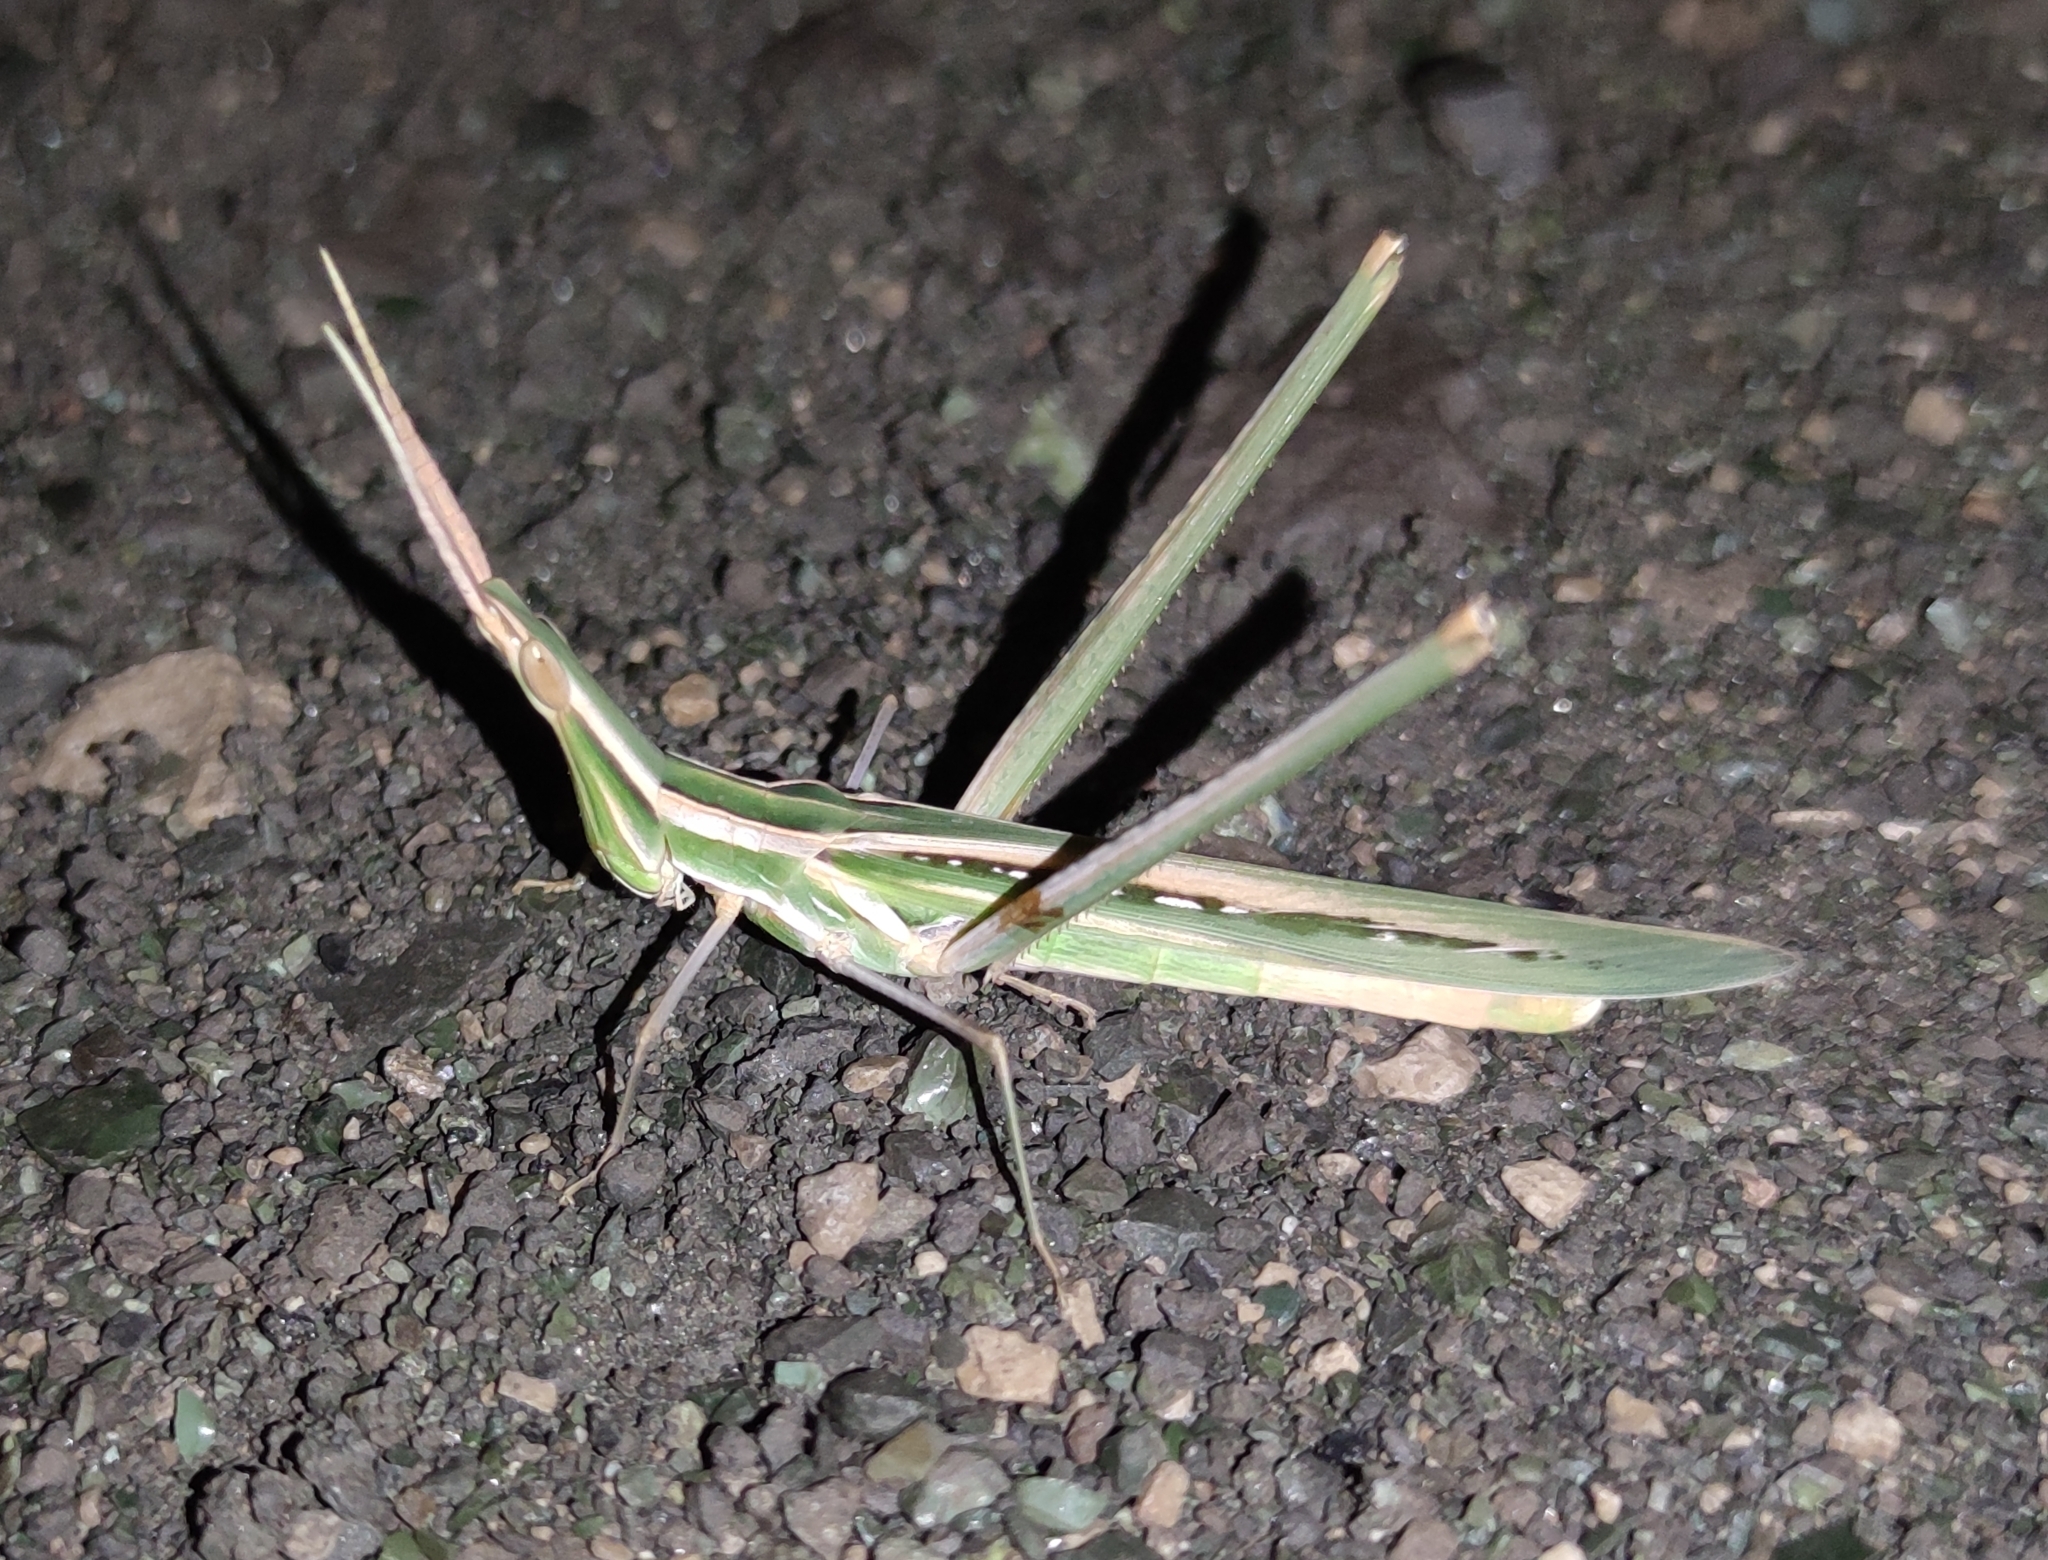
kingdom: Animalia
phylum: Arthropoda
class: Insecta
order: Orthoptera
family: Acrididae
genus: Acrida
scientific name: Acrida ungarica
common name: Common cone-headed grasshopper
